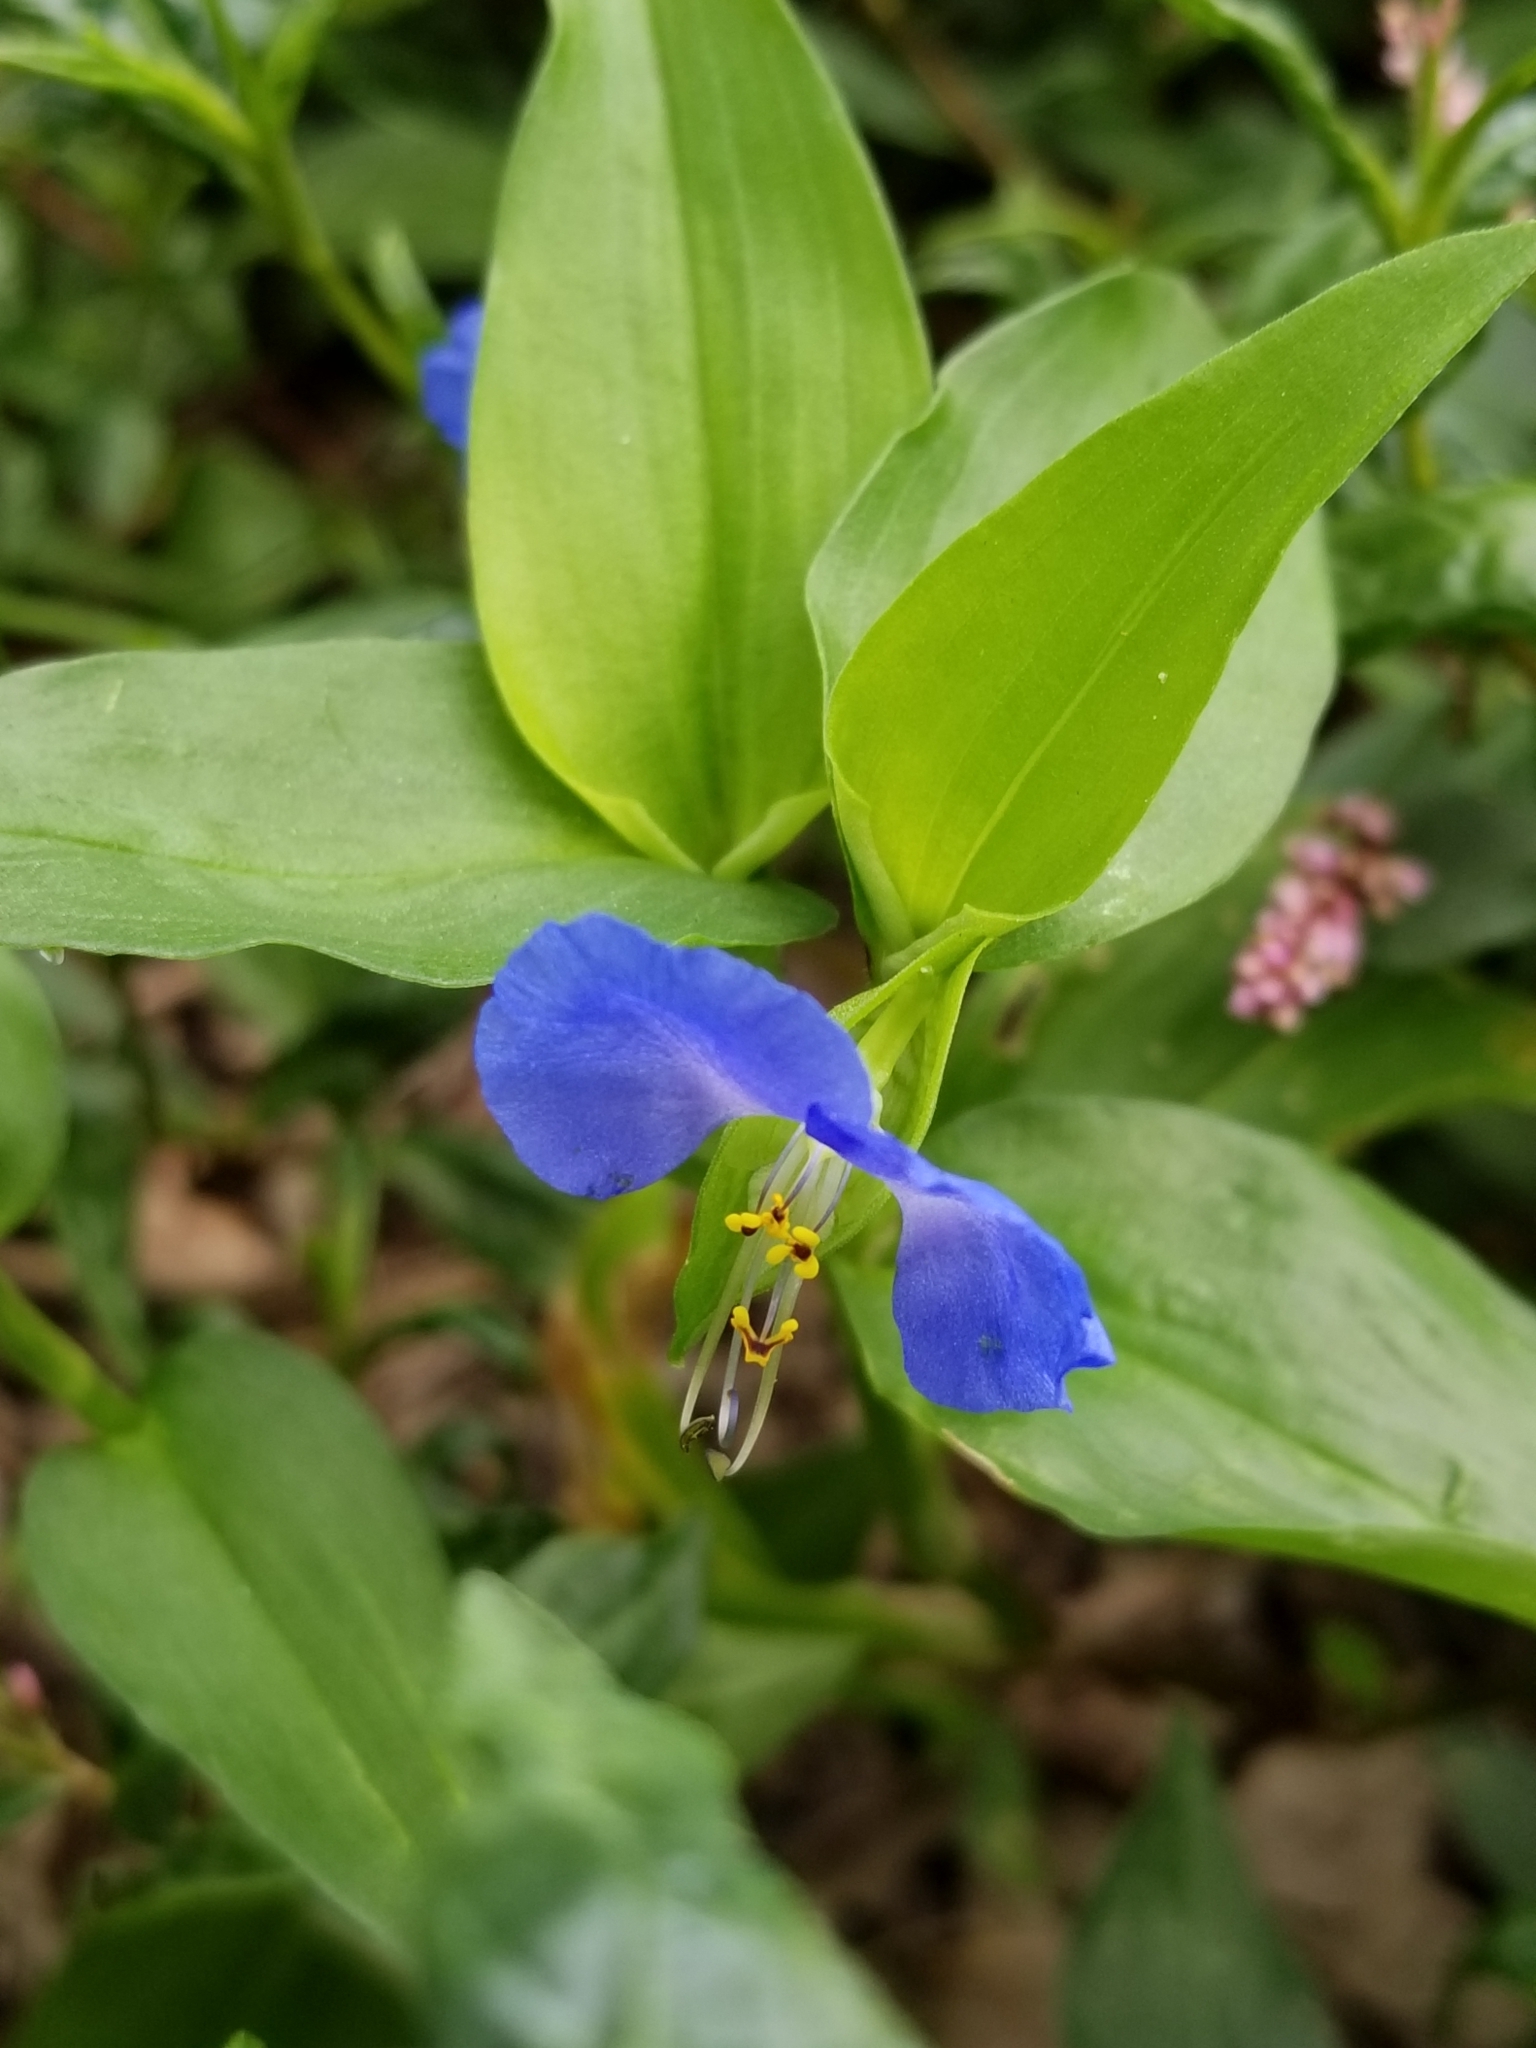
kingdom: Plantae
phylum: Tracheophyta
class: Liliopsida
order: Commelinales
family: Commelinaceae
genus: Commelina
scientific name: Commelina communis
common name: Asiatic dayflower
